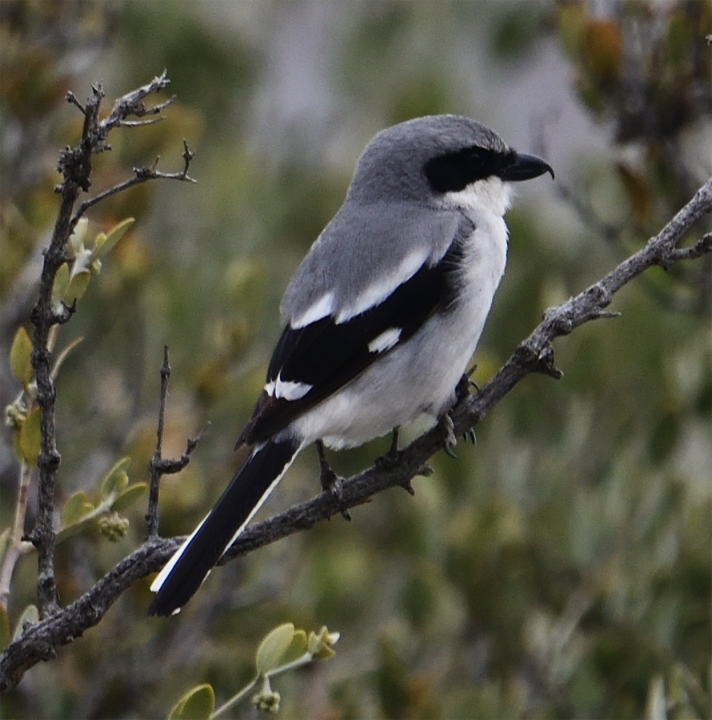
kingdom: Animalia
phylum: Chordata
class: Aves
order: Passeriformes
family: Laniidae
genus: Lanius
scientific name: Lanius ludovicianus
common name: Loggerhead shrike
